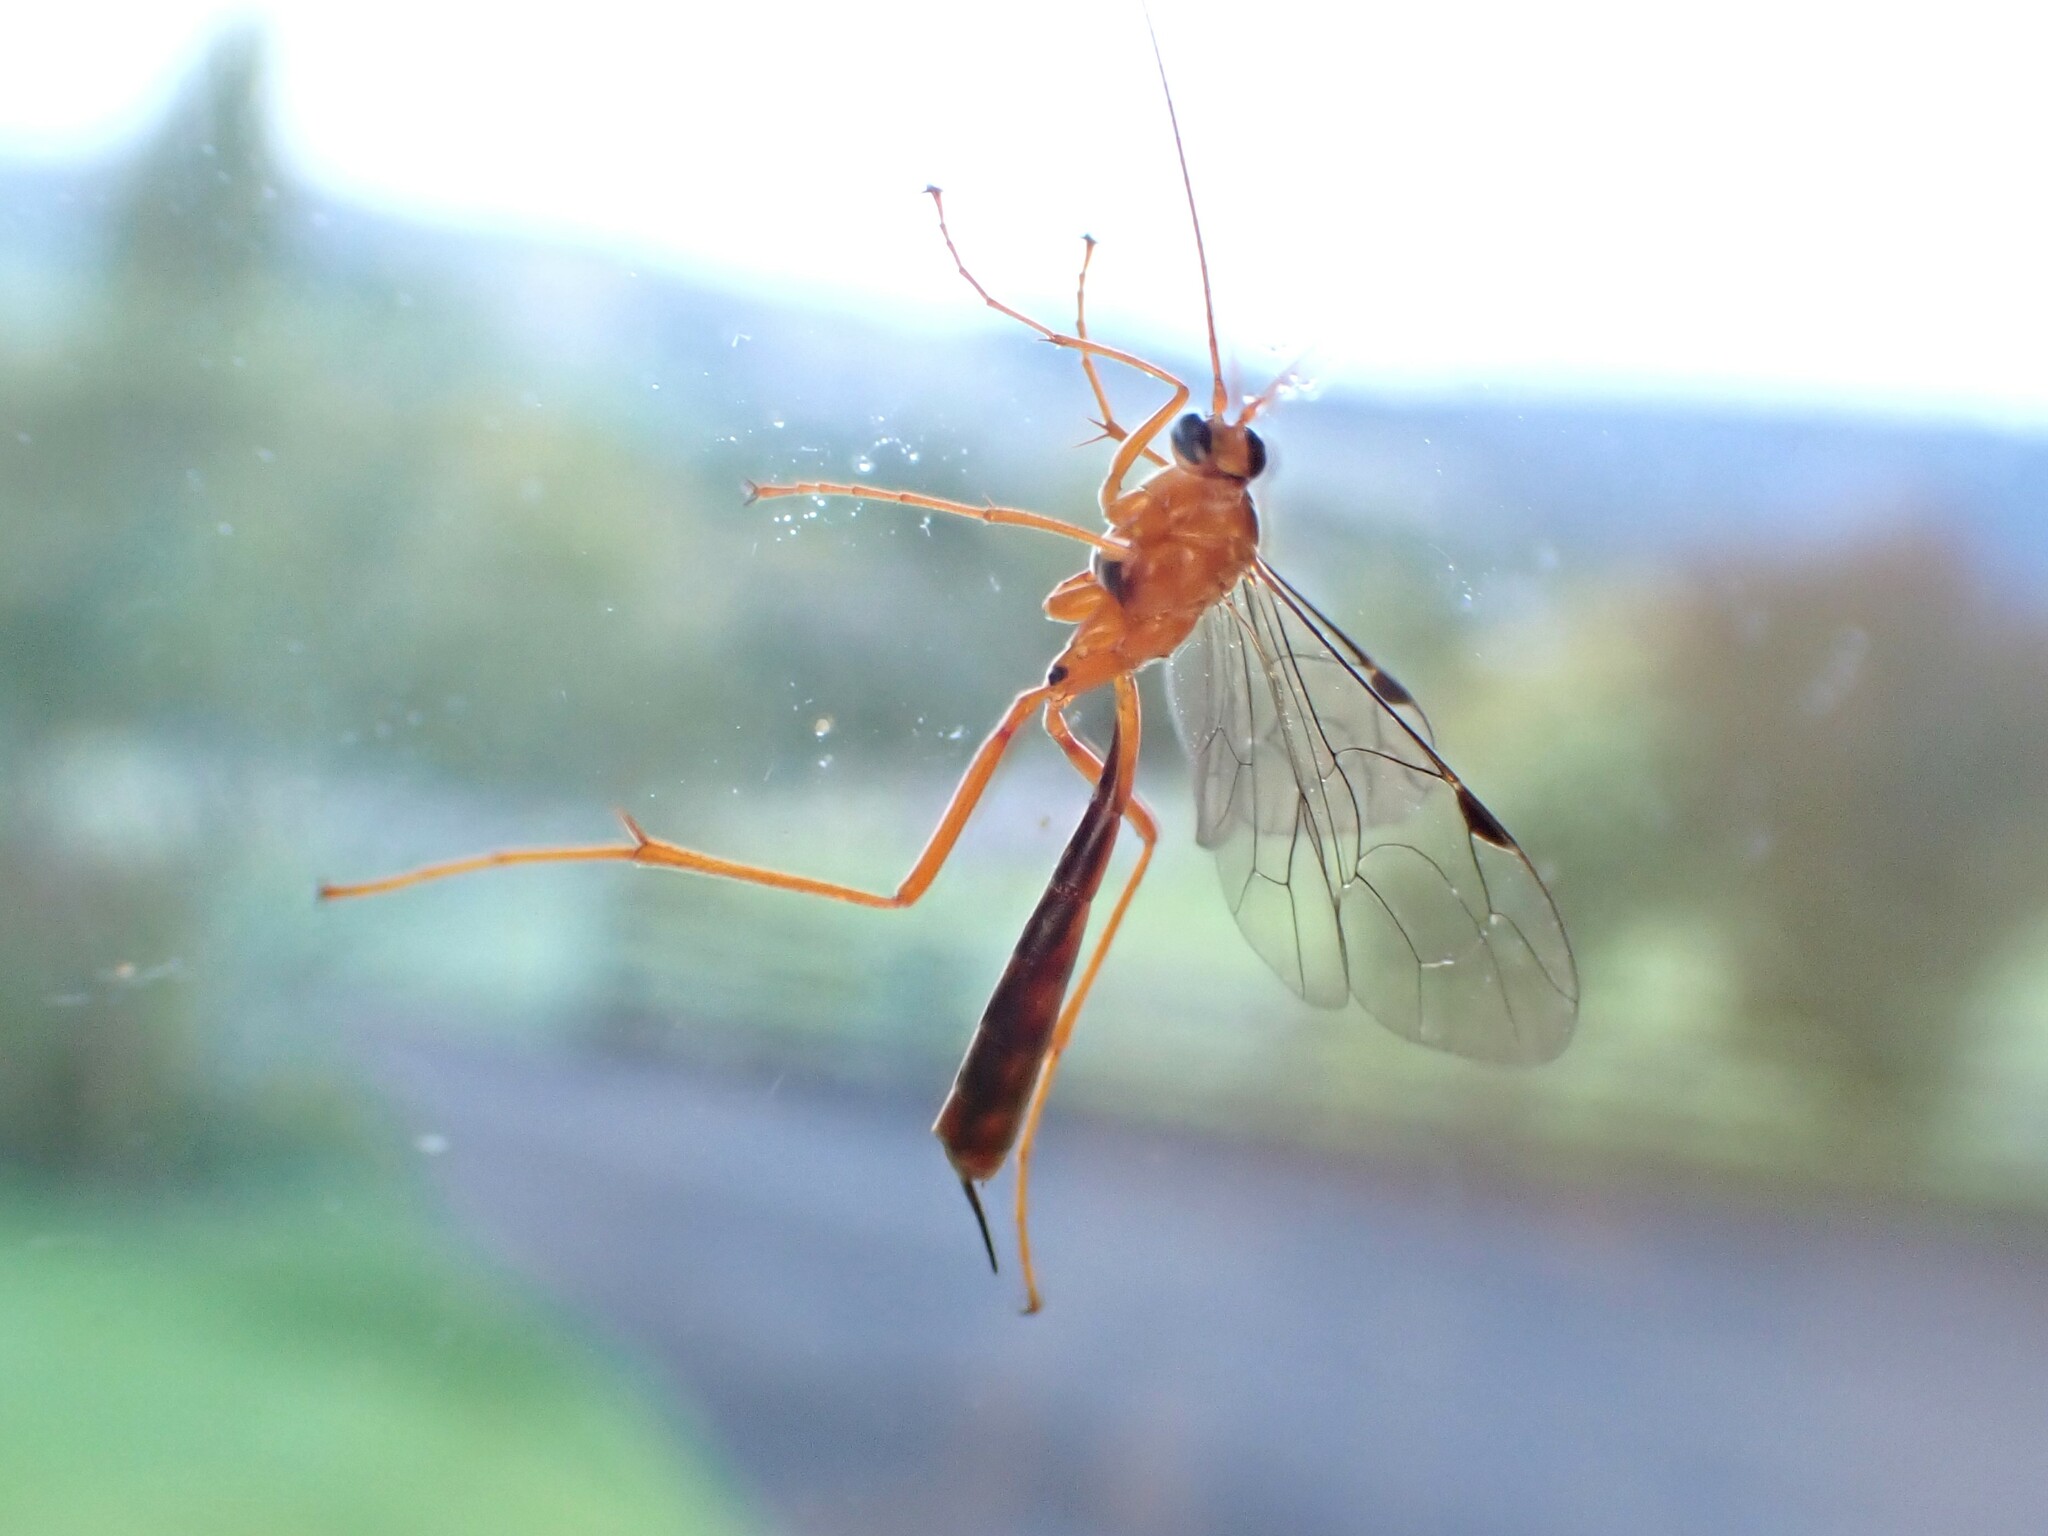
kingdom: Animalia
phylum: Arthropoda
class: Insecta
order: Hymenoptera
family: Ichneumonidae
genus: Netelia
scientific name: Netelia ephippiata
